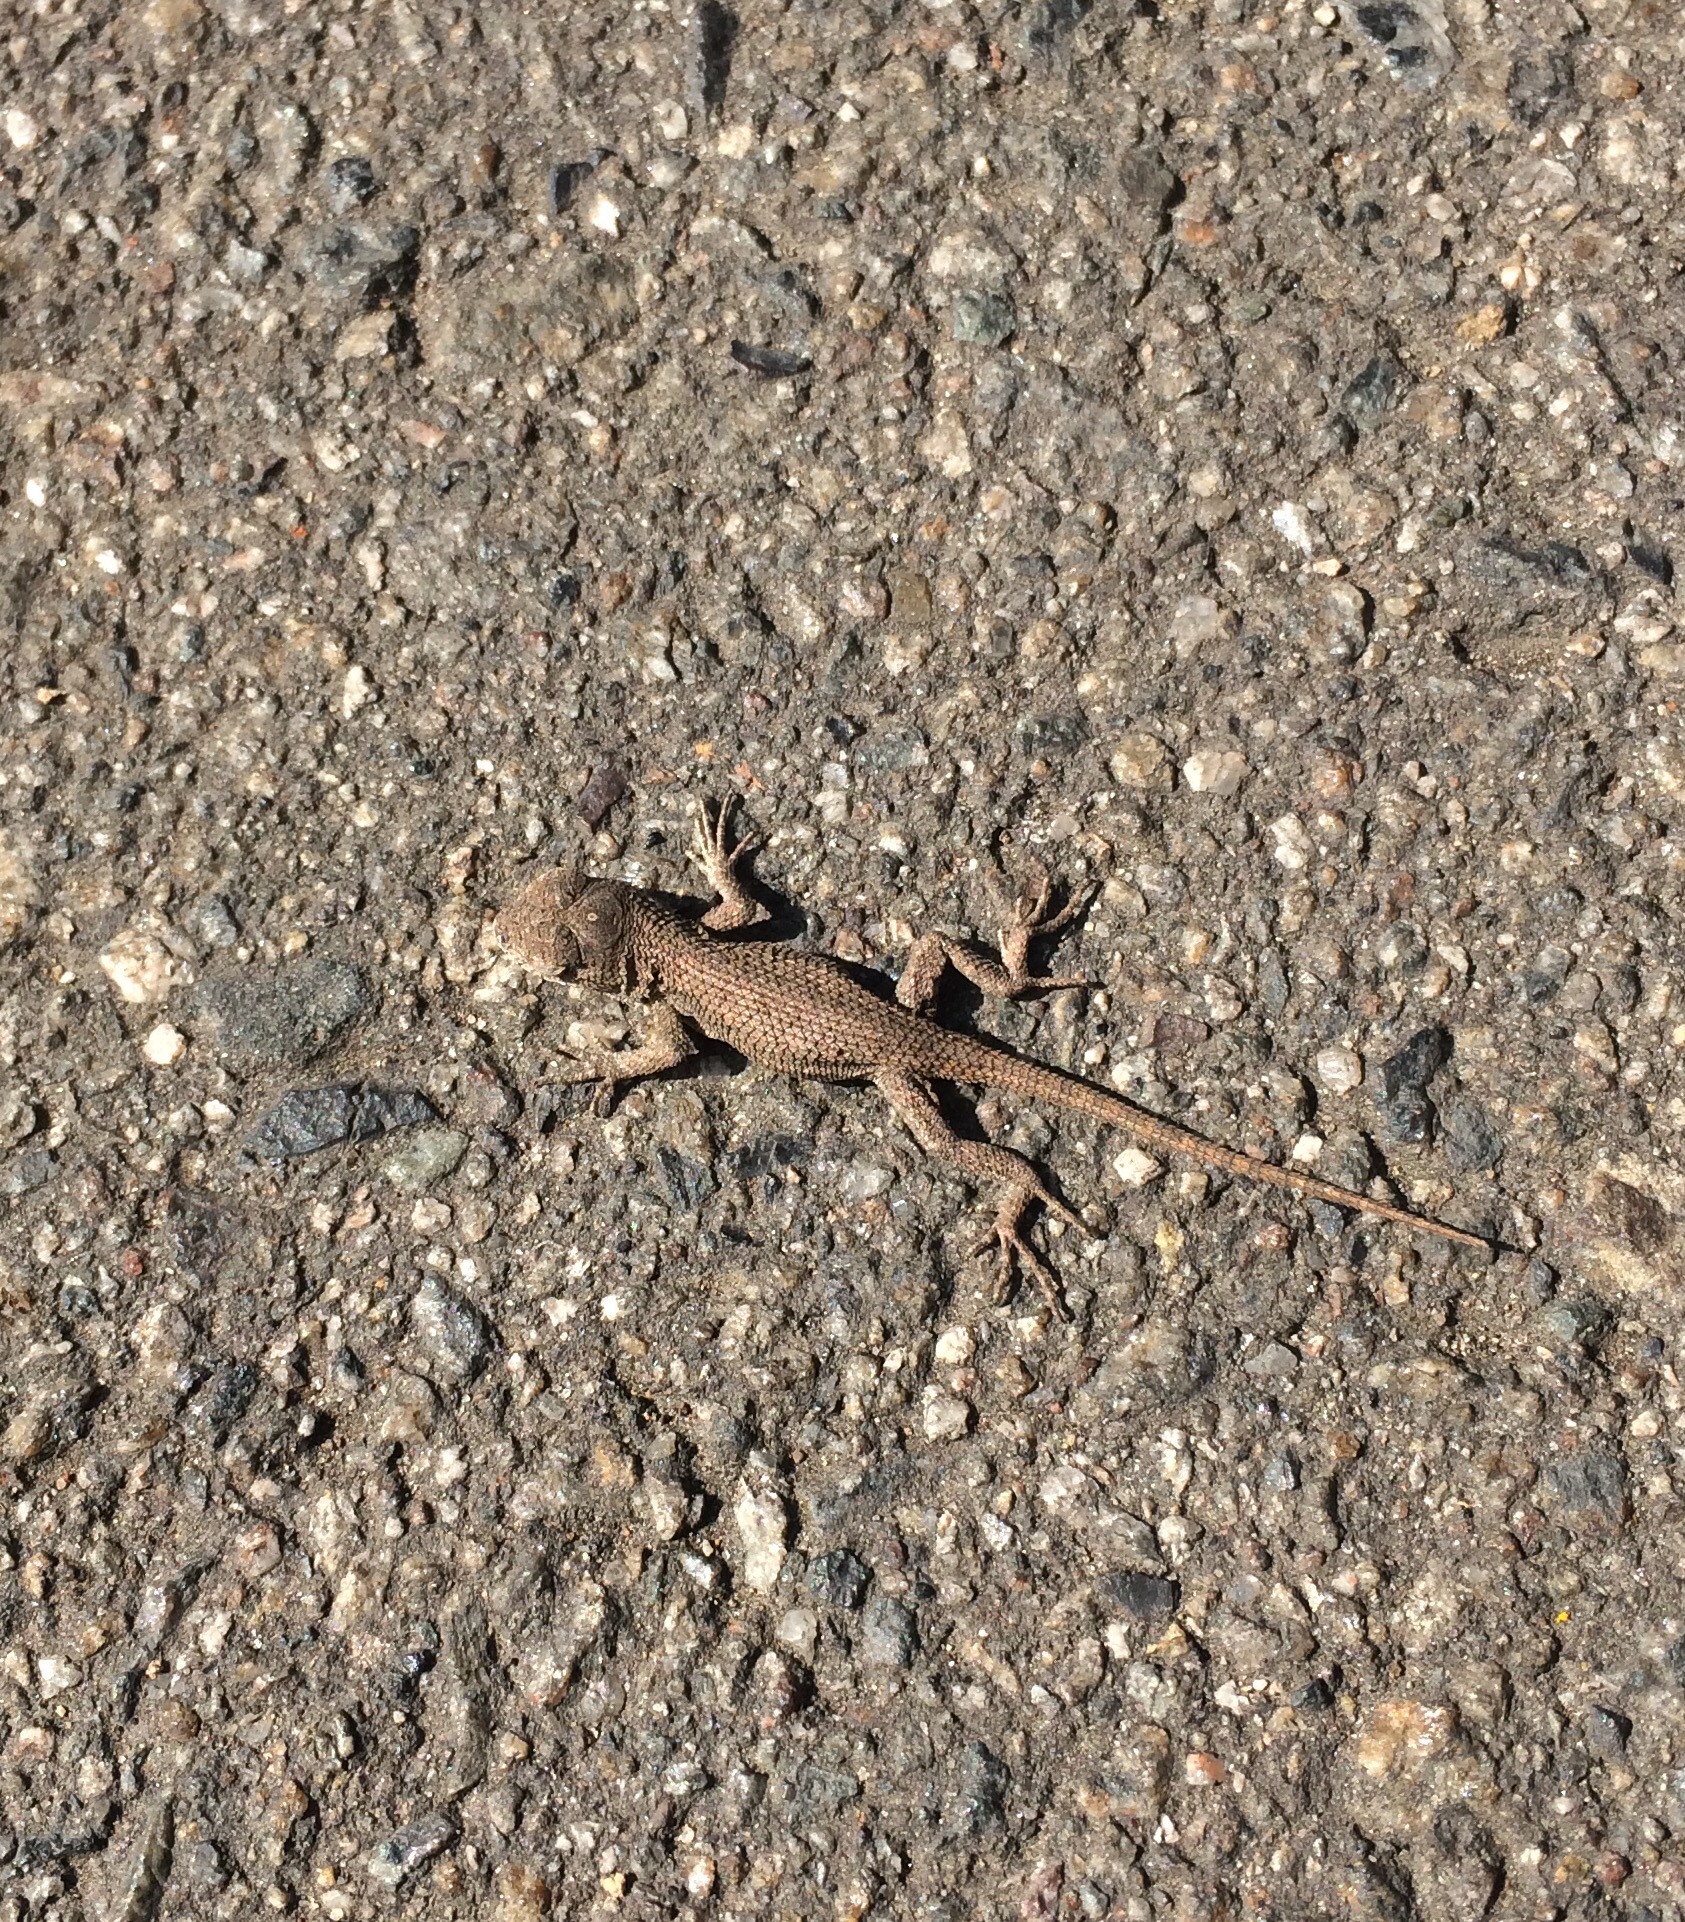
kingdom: Animalia
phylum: Chordata
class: Squamata
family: Phrynosomatidae
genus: Sceloporus
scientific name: Sceloporus occidentalis
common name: Western fence lizard
